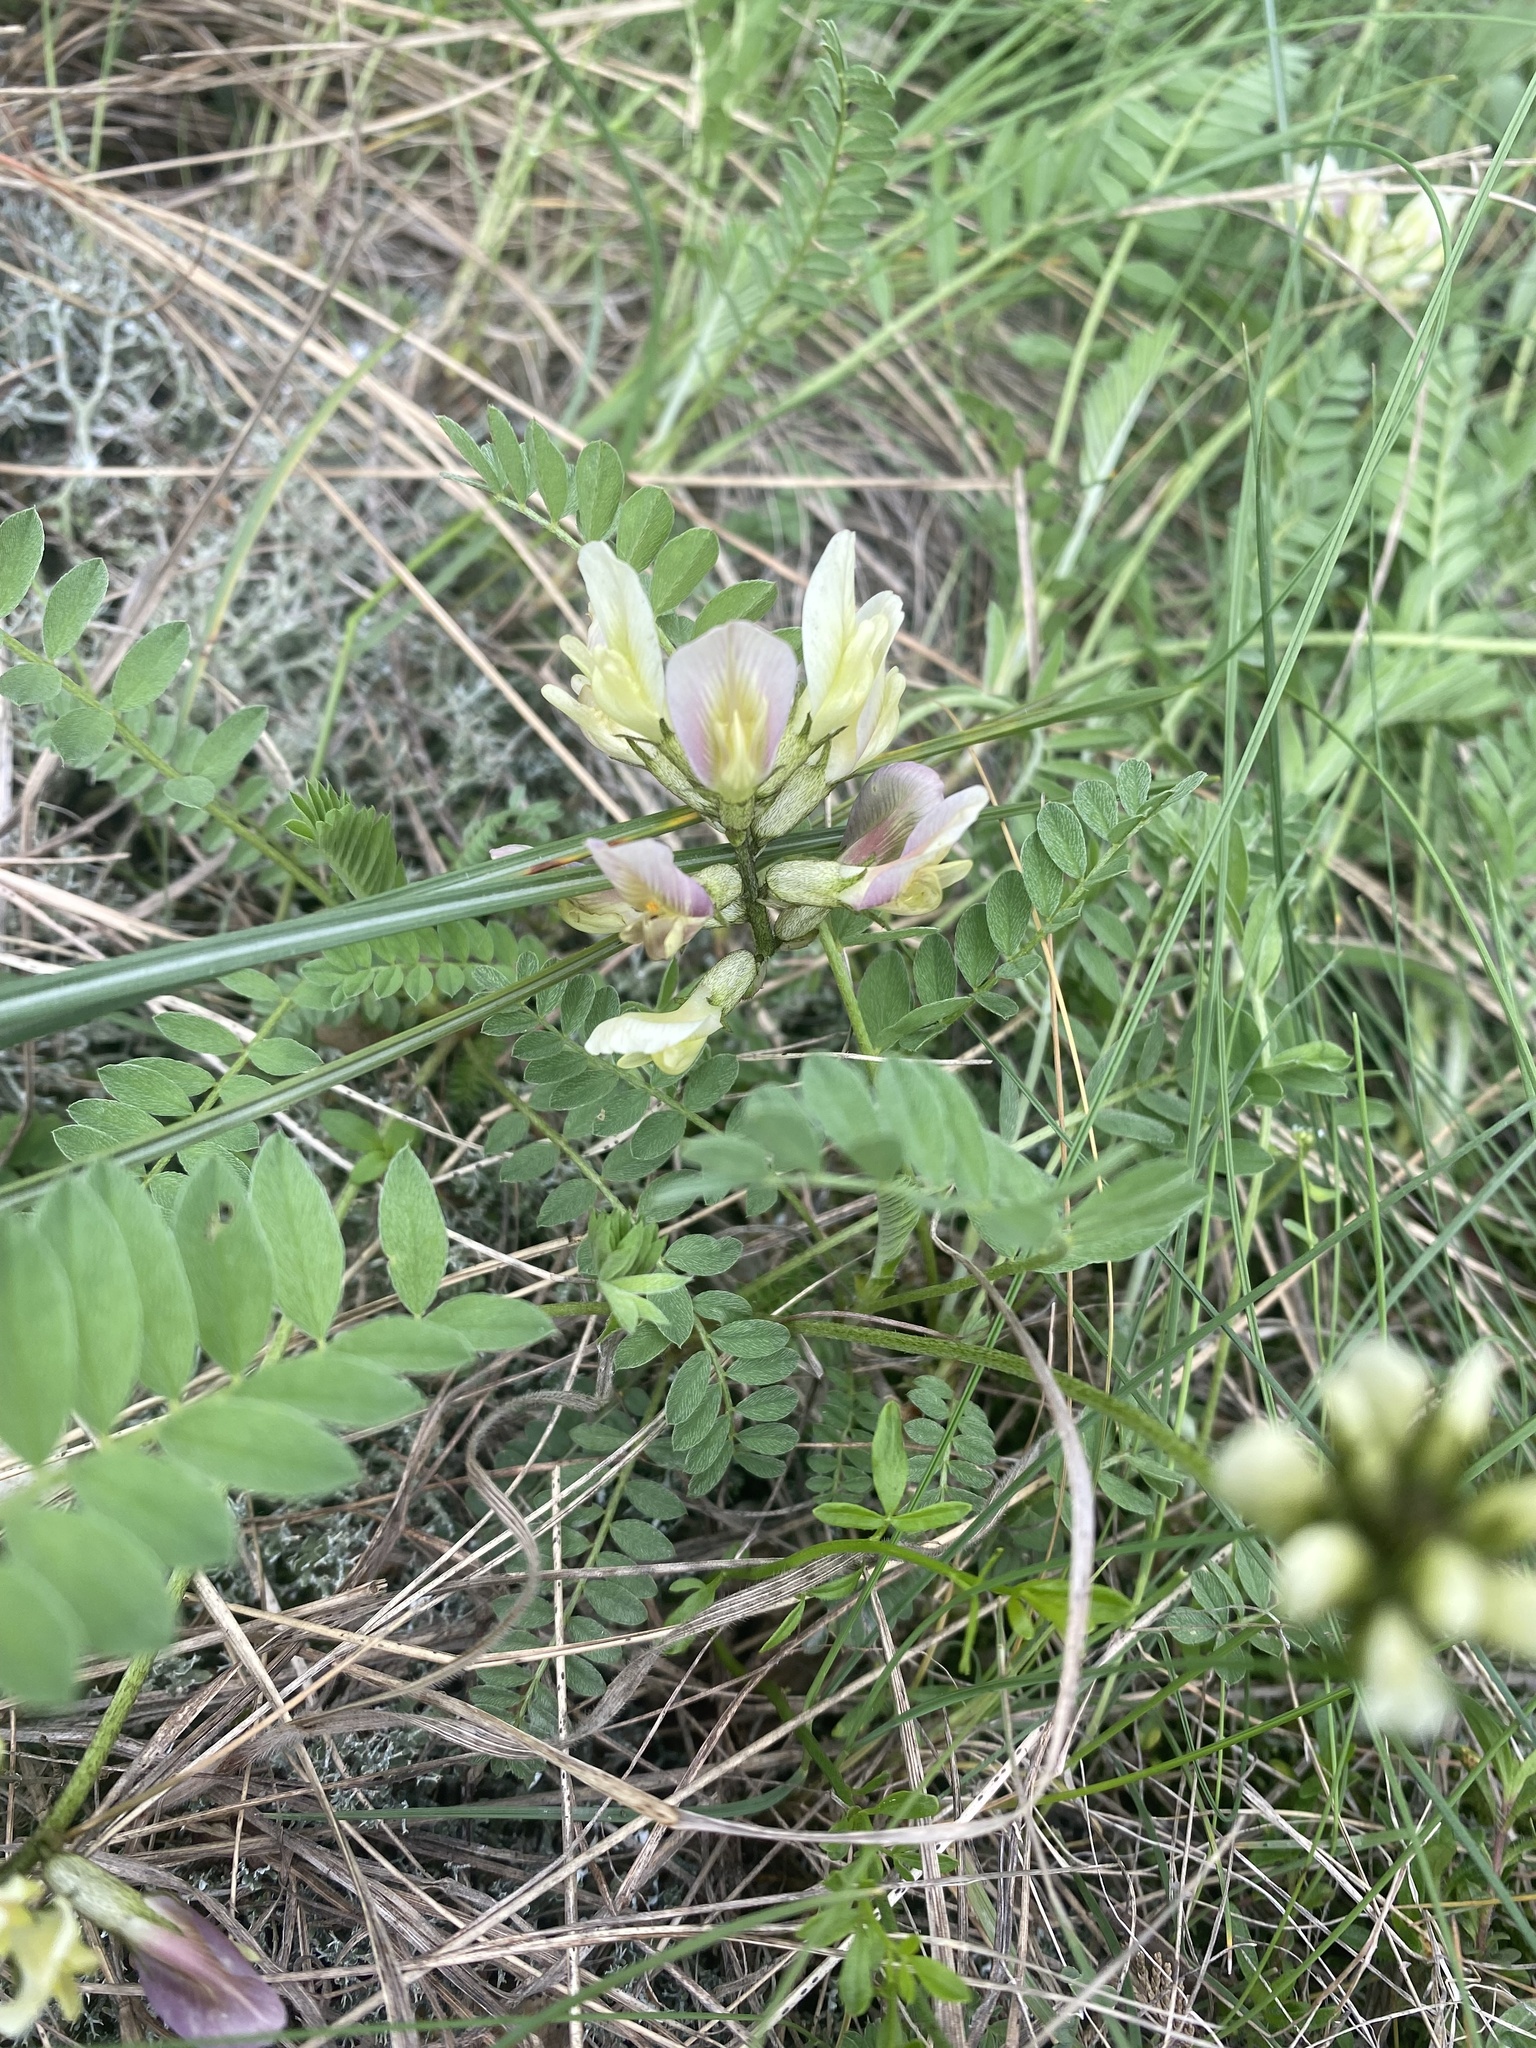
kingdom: Plantae
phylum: Tracheophyta
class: Magnoliopsida
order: Fabales
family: Fabaceae
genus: Astragalus
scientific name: Astragalus fragrans
